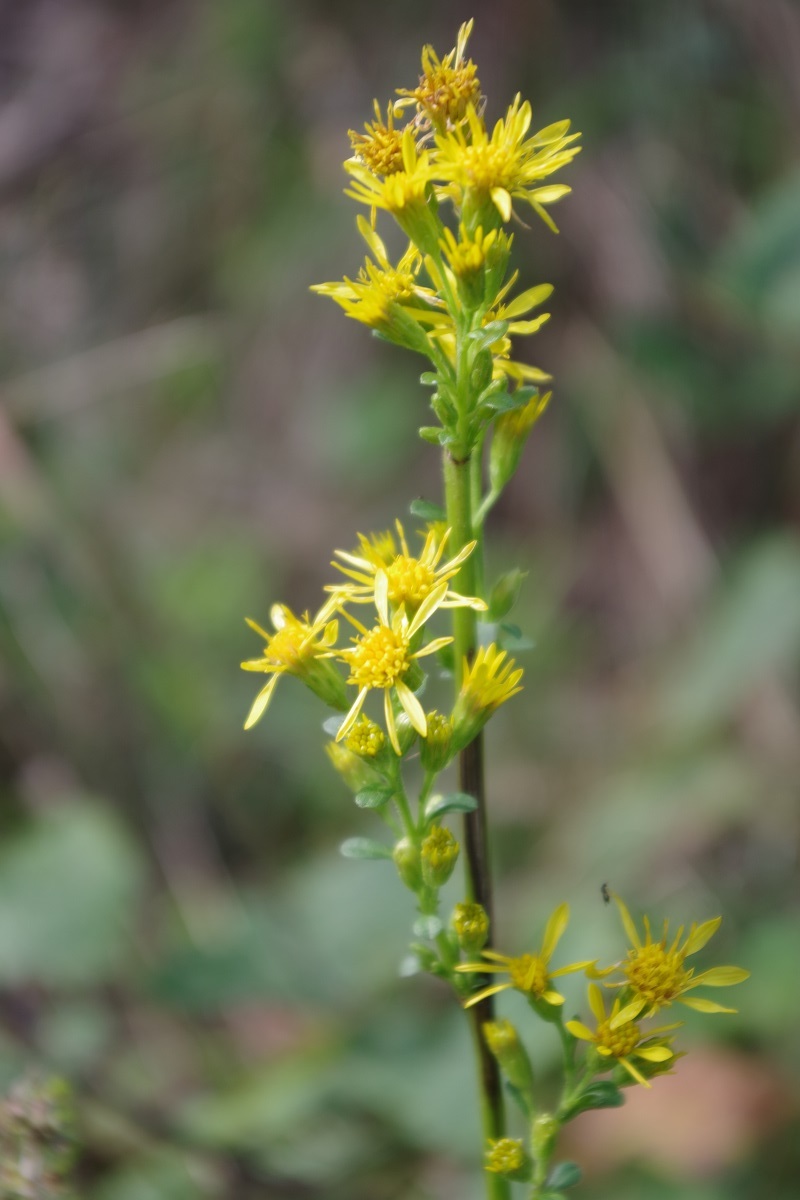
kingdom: Plantae
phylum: Tracheophyta
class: Magnoliopsida
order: Asterales
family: Asteraceae
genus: Solidago
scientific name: Solidago virgaurea
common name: Goldenrod
